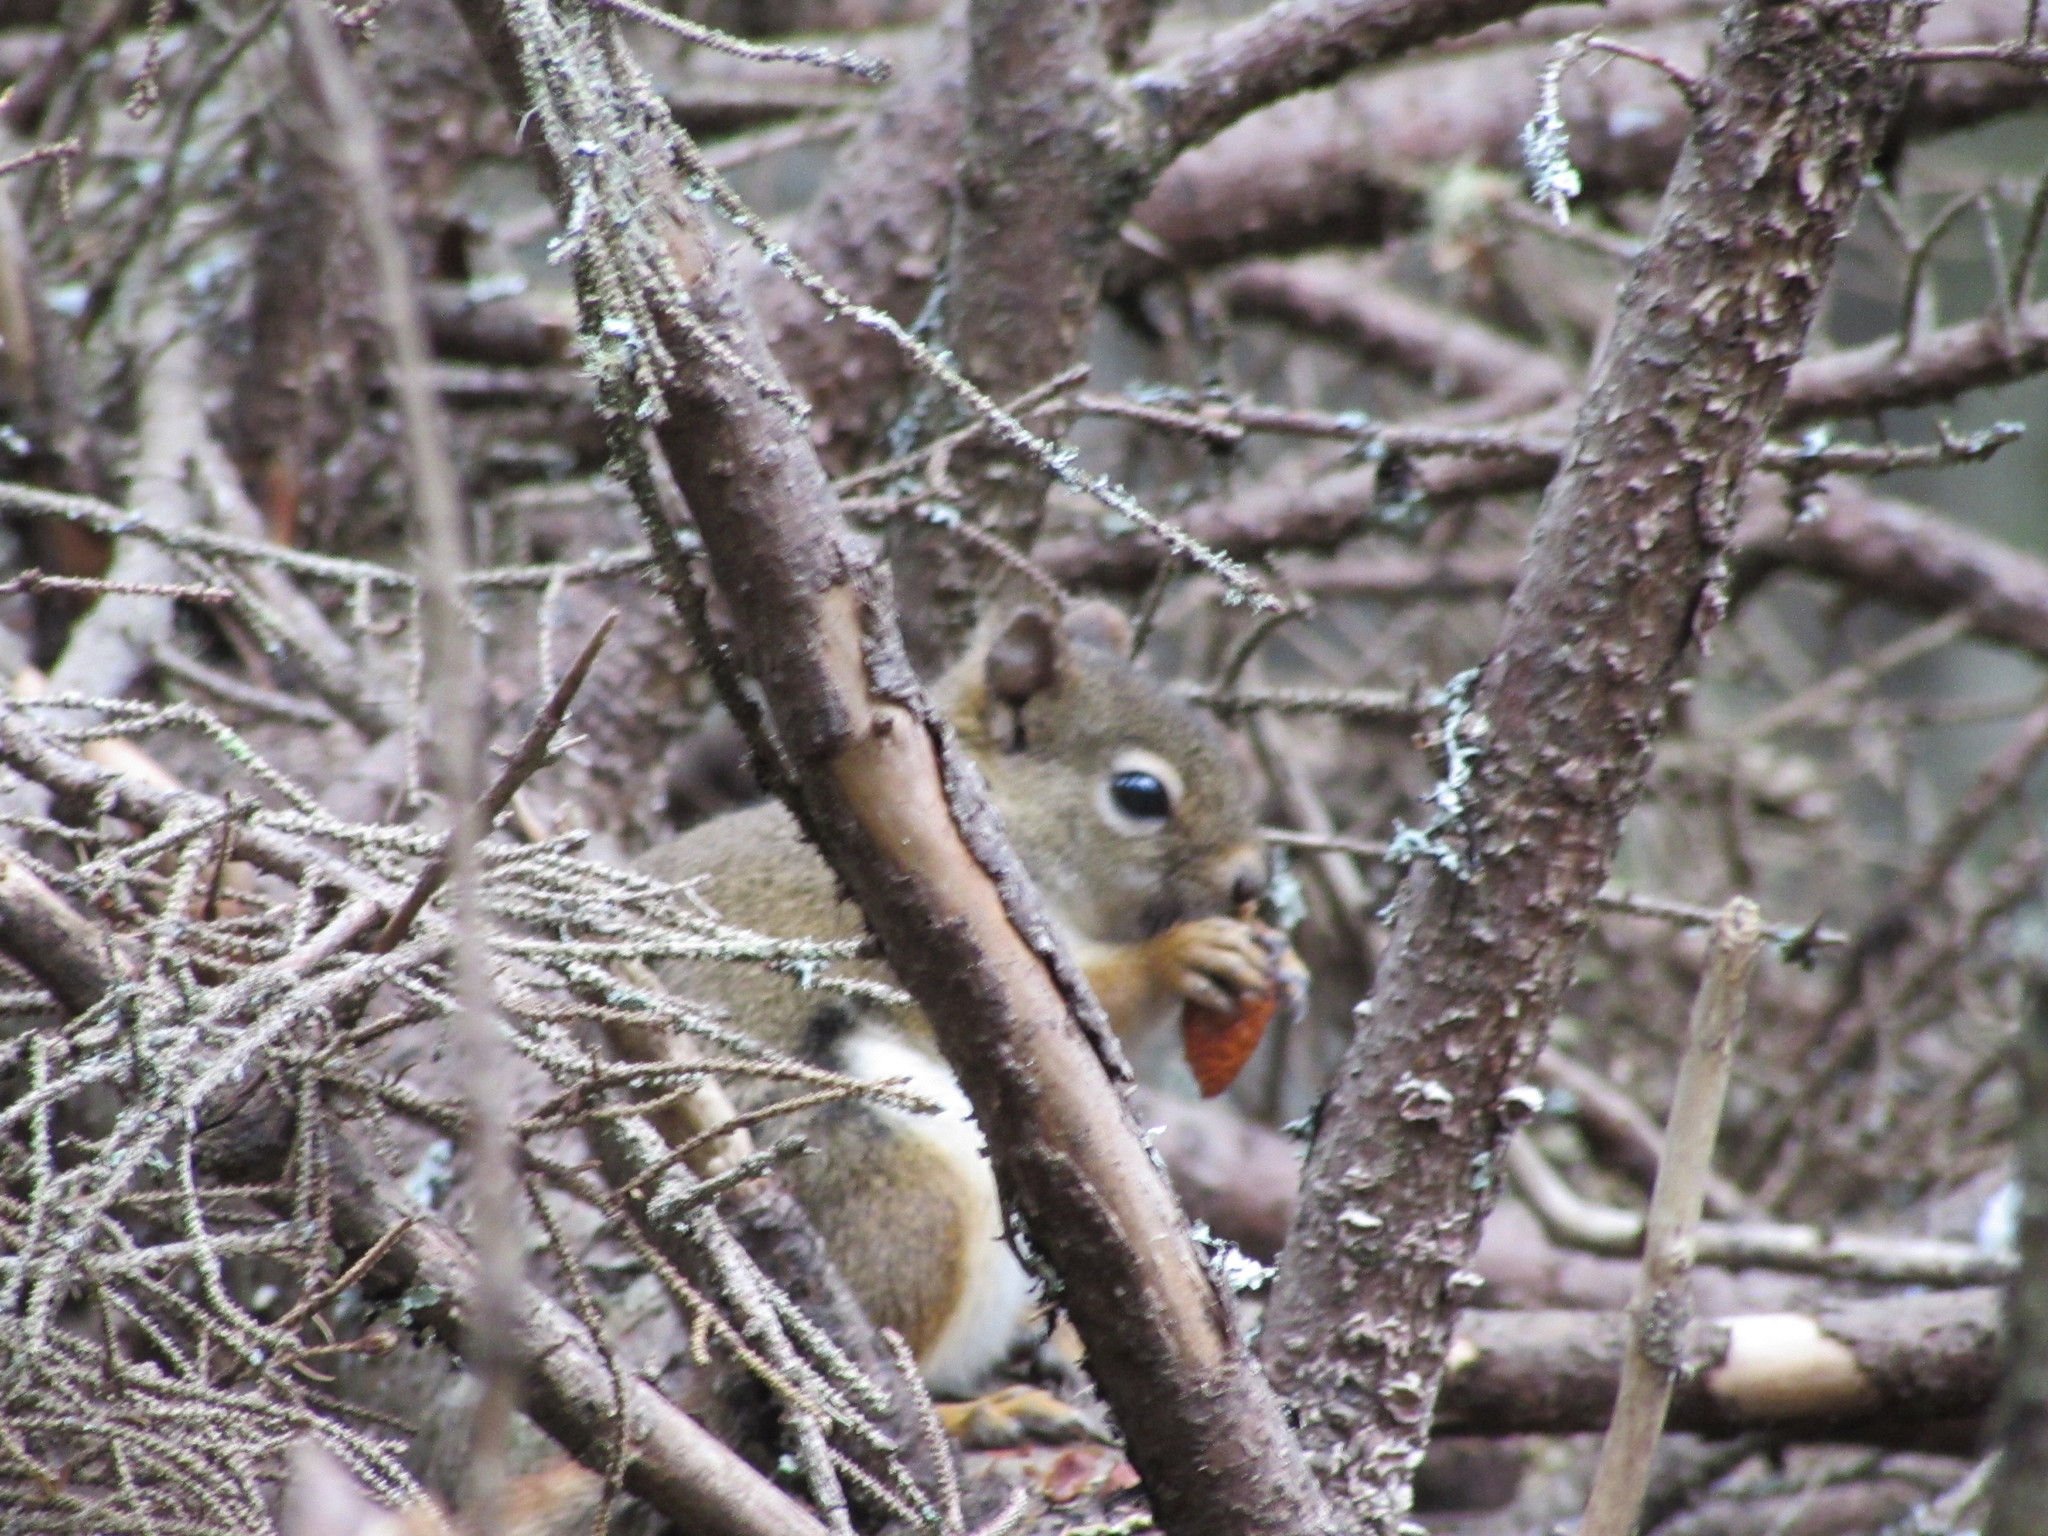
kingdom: Animalia
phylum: Chordata
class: Mammalia
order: Rodentia
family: Sciuridae
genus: Tamiasciurus
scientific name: Tamiasciurus hudsonicus
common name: Red squirrel
